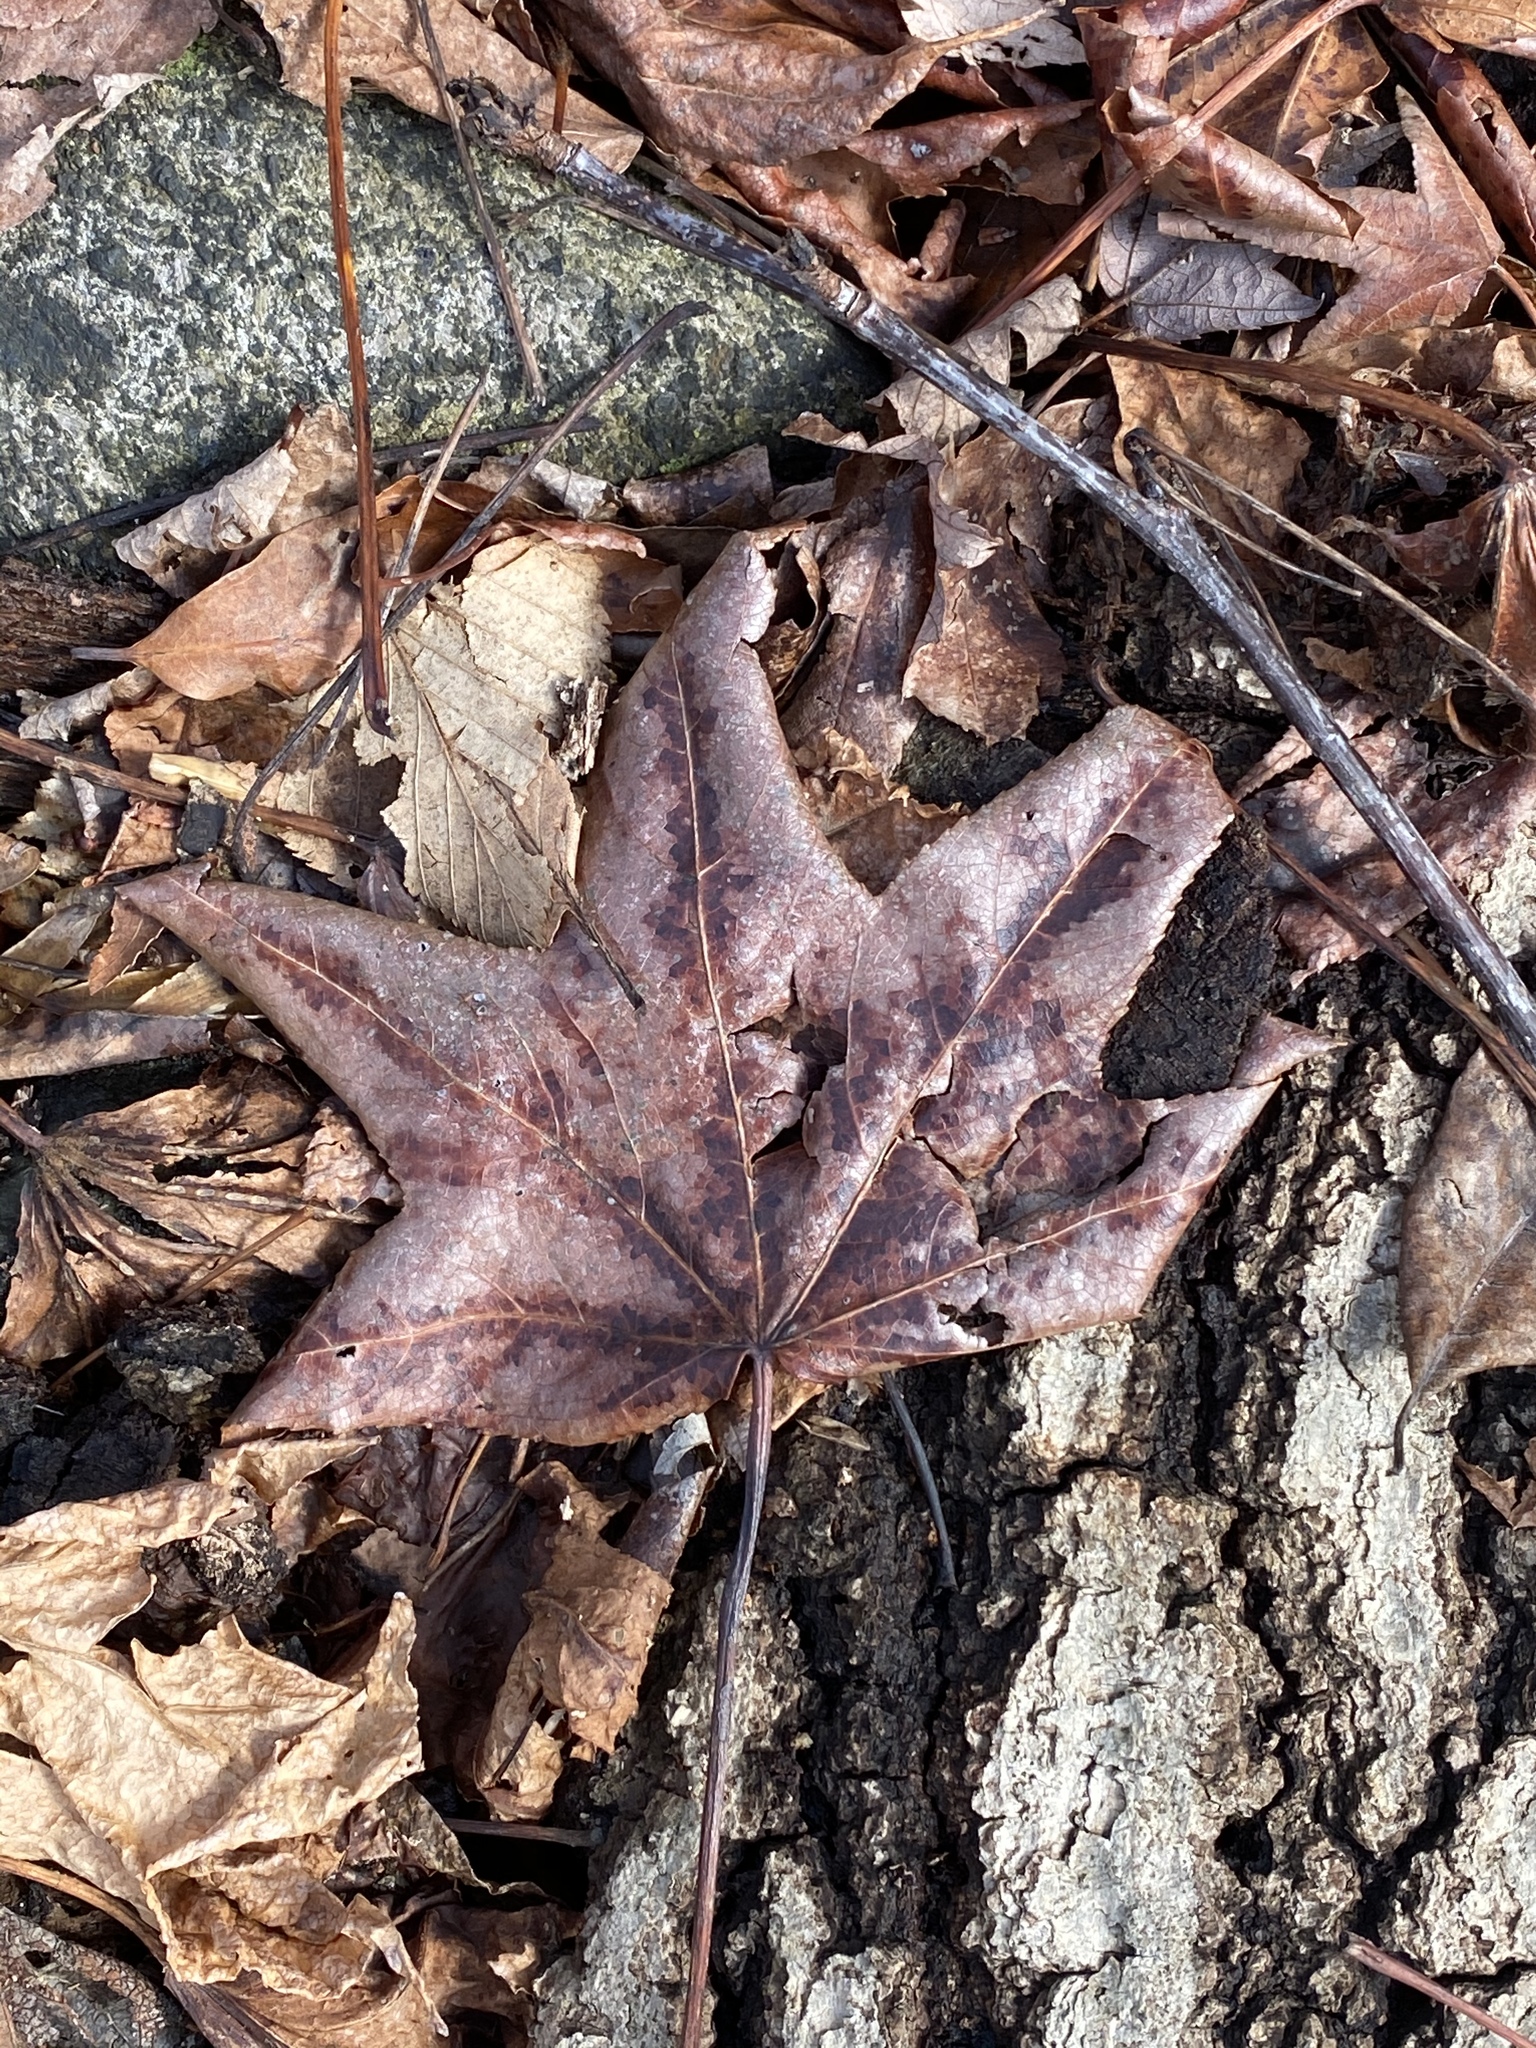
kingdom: Plantae
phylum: Tracheophyta
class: Magnoliopsida
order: Saxifragales
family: Altingiaceae
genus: Liquidambar
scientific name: Liquidambar styraciflua
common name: Sweet gum
